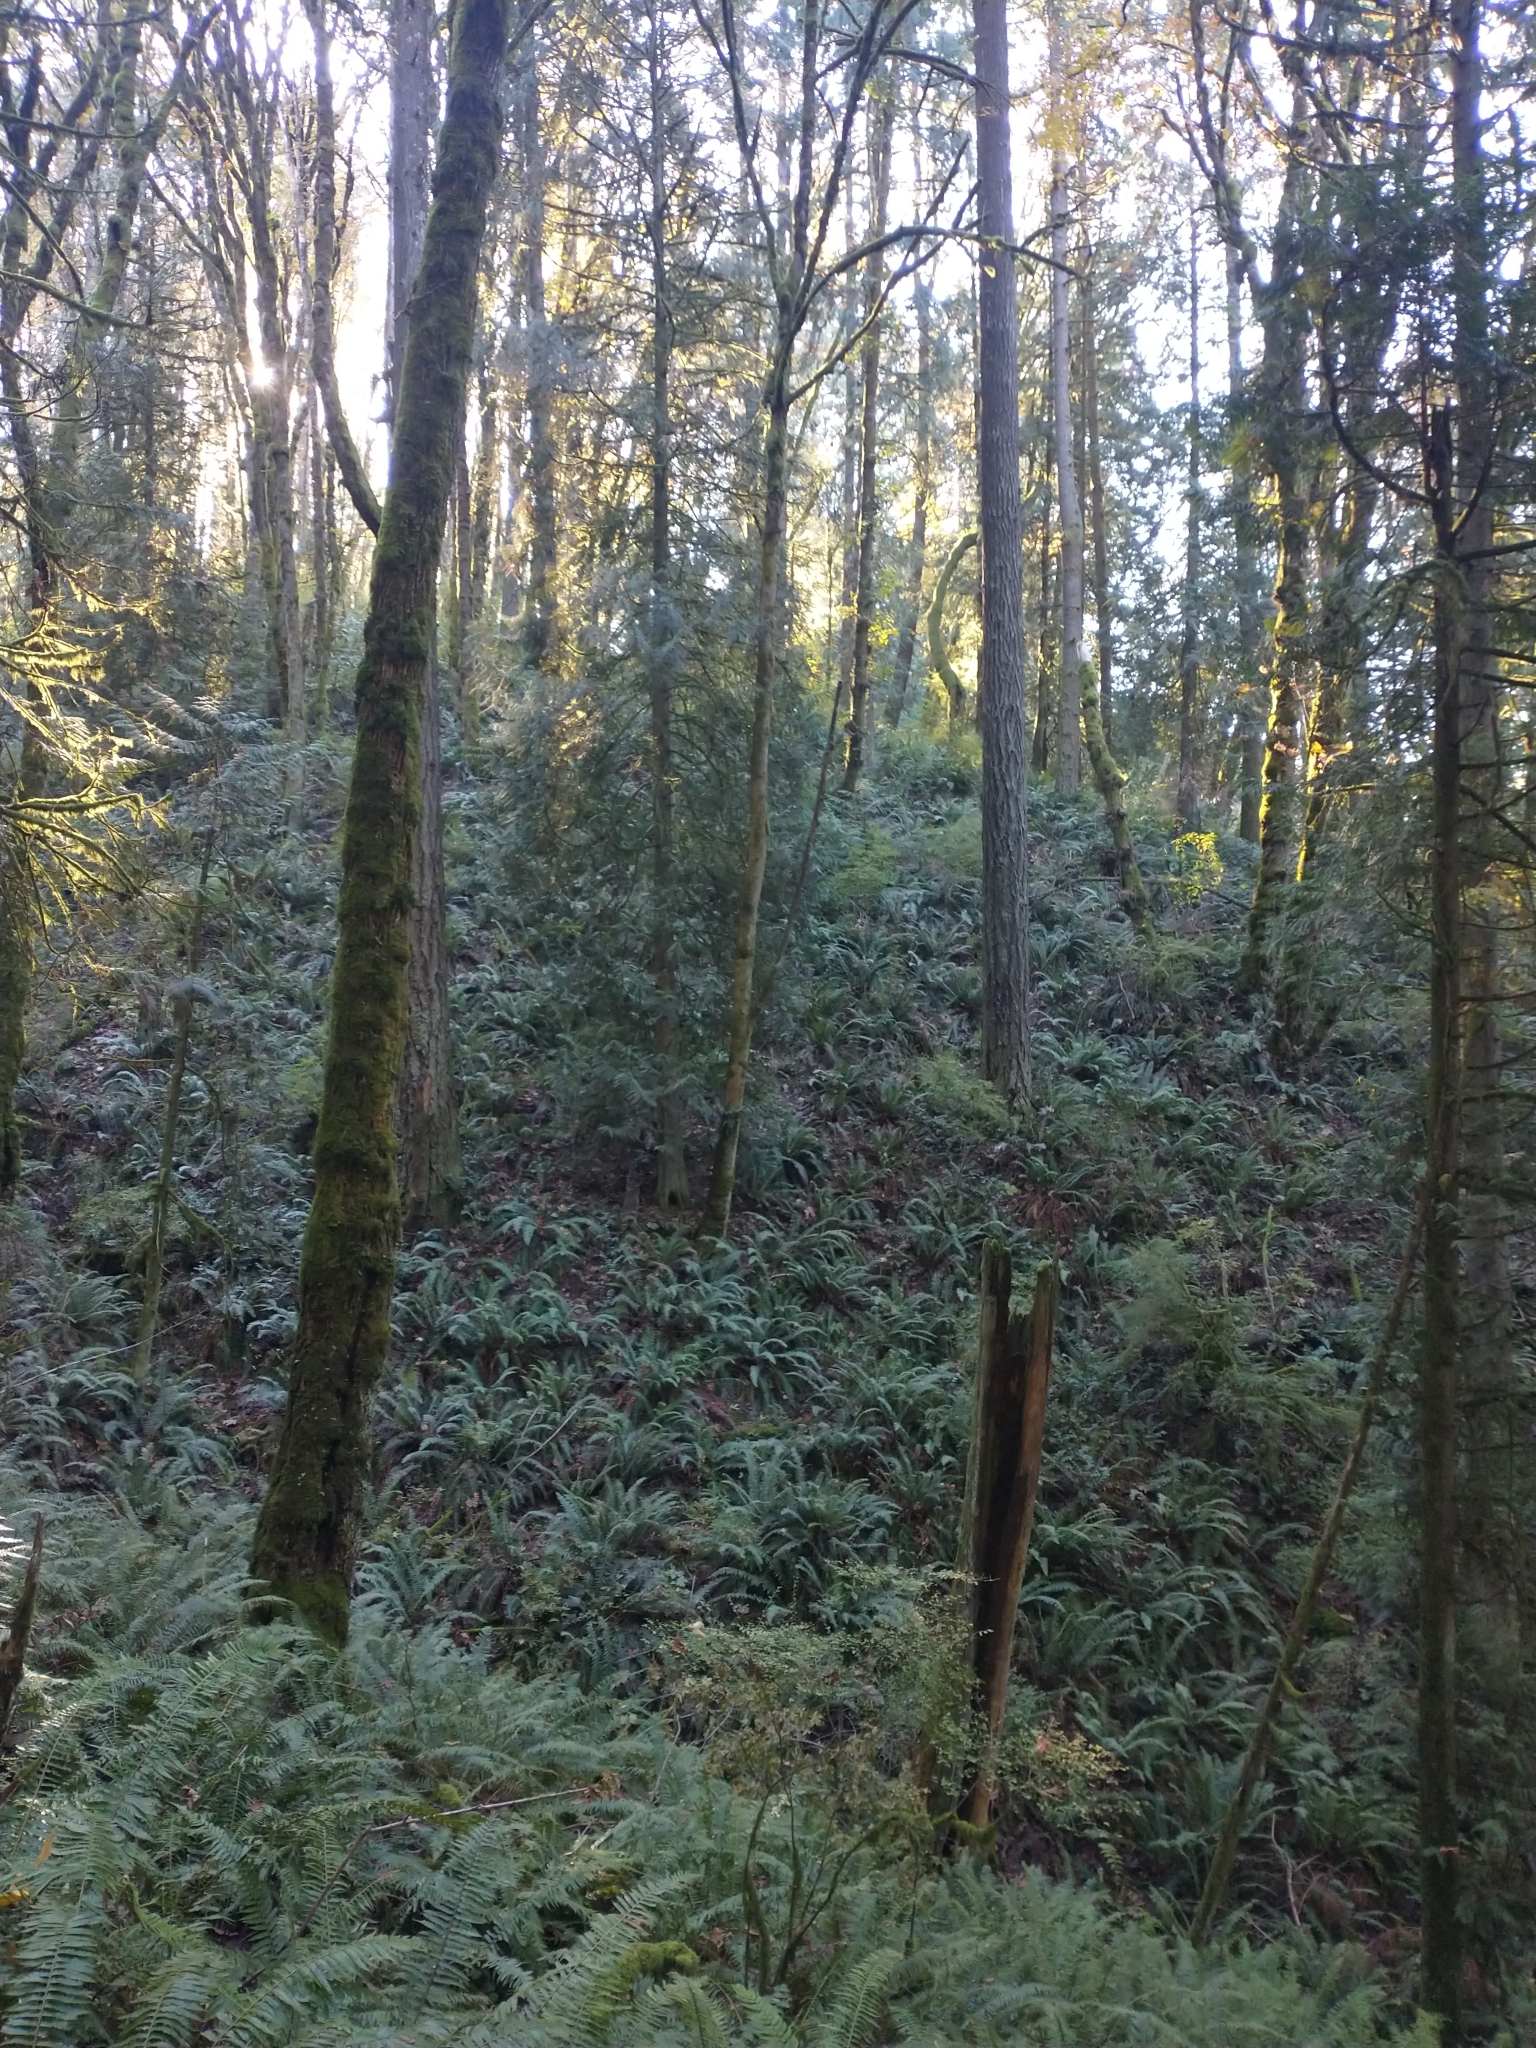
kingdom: Plantae
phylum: Tracheophyta
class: Pinopsida
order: Pinales
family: Cupressaceae
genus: Thuja
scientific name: Thuja plicata
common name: Western red-cedar
